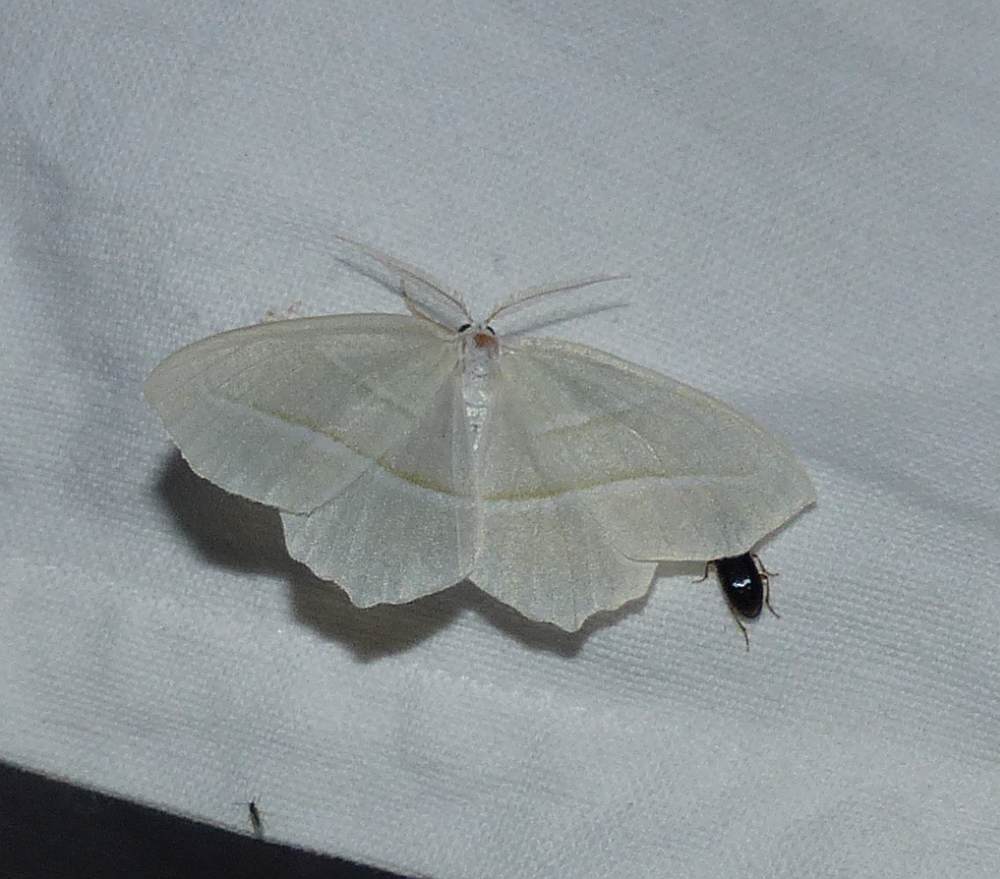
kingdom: Animalia
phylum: Arthropoda
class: Insecta
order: Lepidoptera
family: Geometridae
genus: Campaea
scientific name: Campaea perlata
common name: Fringed looper
